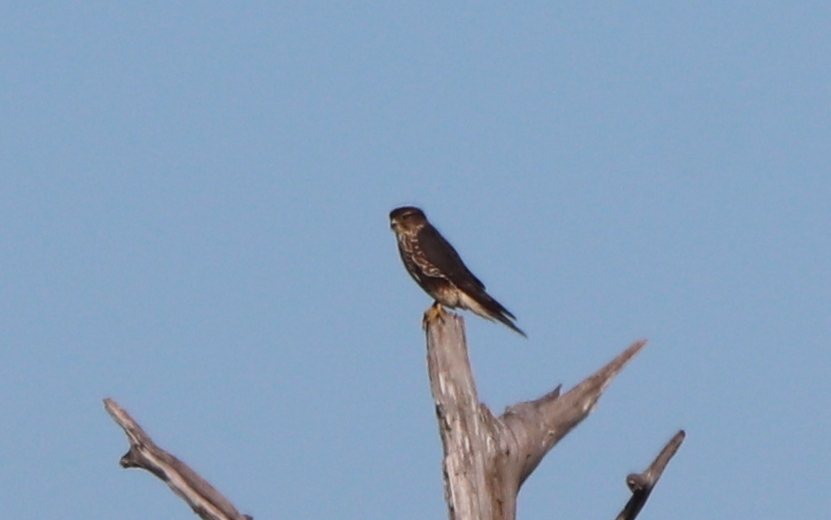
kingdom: Animalia
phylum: Chordata
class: Aves
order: Falconiformes
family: Falconidae
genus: Falco
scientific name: Falco columbarius
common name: Merlin
